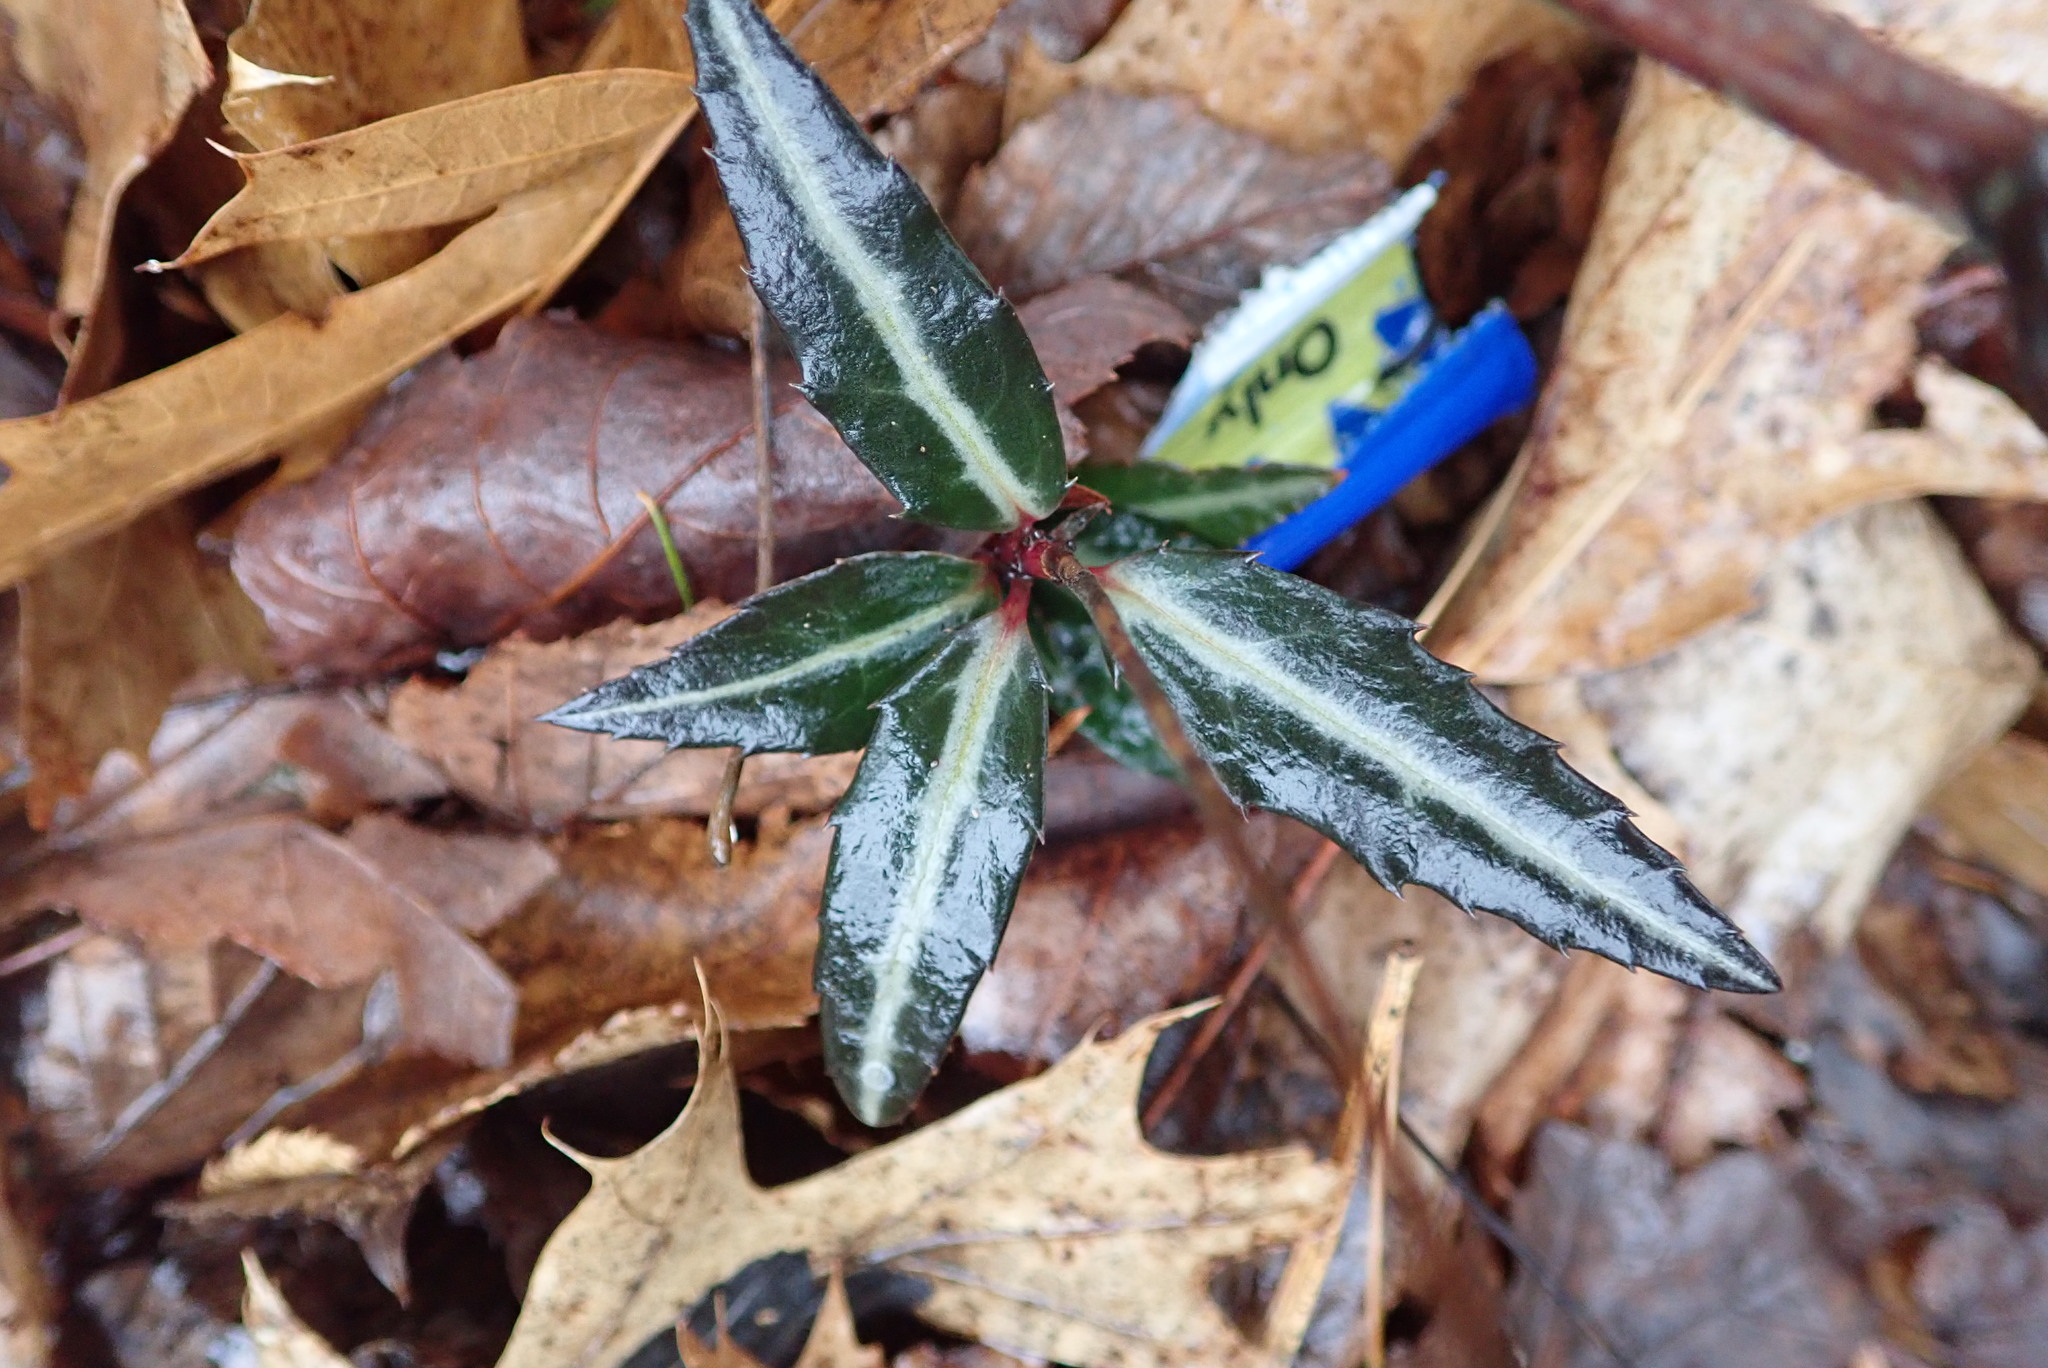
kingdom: Plantae
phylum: Tracheophyta
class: Magnoliopsida
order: Ericales
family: Ericaceae
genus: Chimaphila
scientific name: Chimaphila maculata
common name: Spotted pipsissewa
